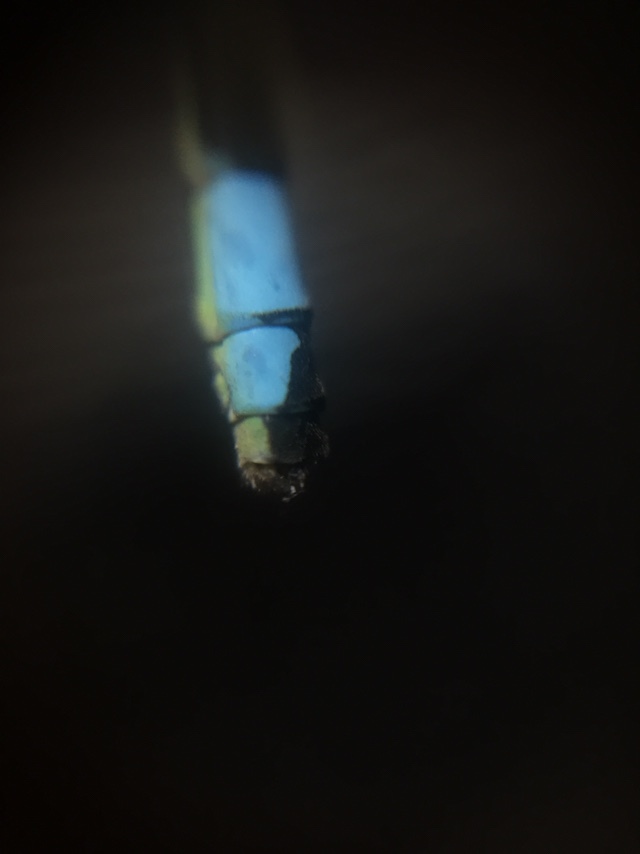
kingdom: Animalia
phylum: Arthropoda
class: Insecta
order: Odonata
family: Coenagrionidae
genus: Ischnura
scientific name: Ischnura senegalensis
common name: Tropical bluetail
